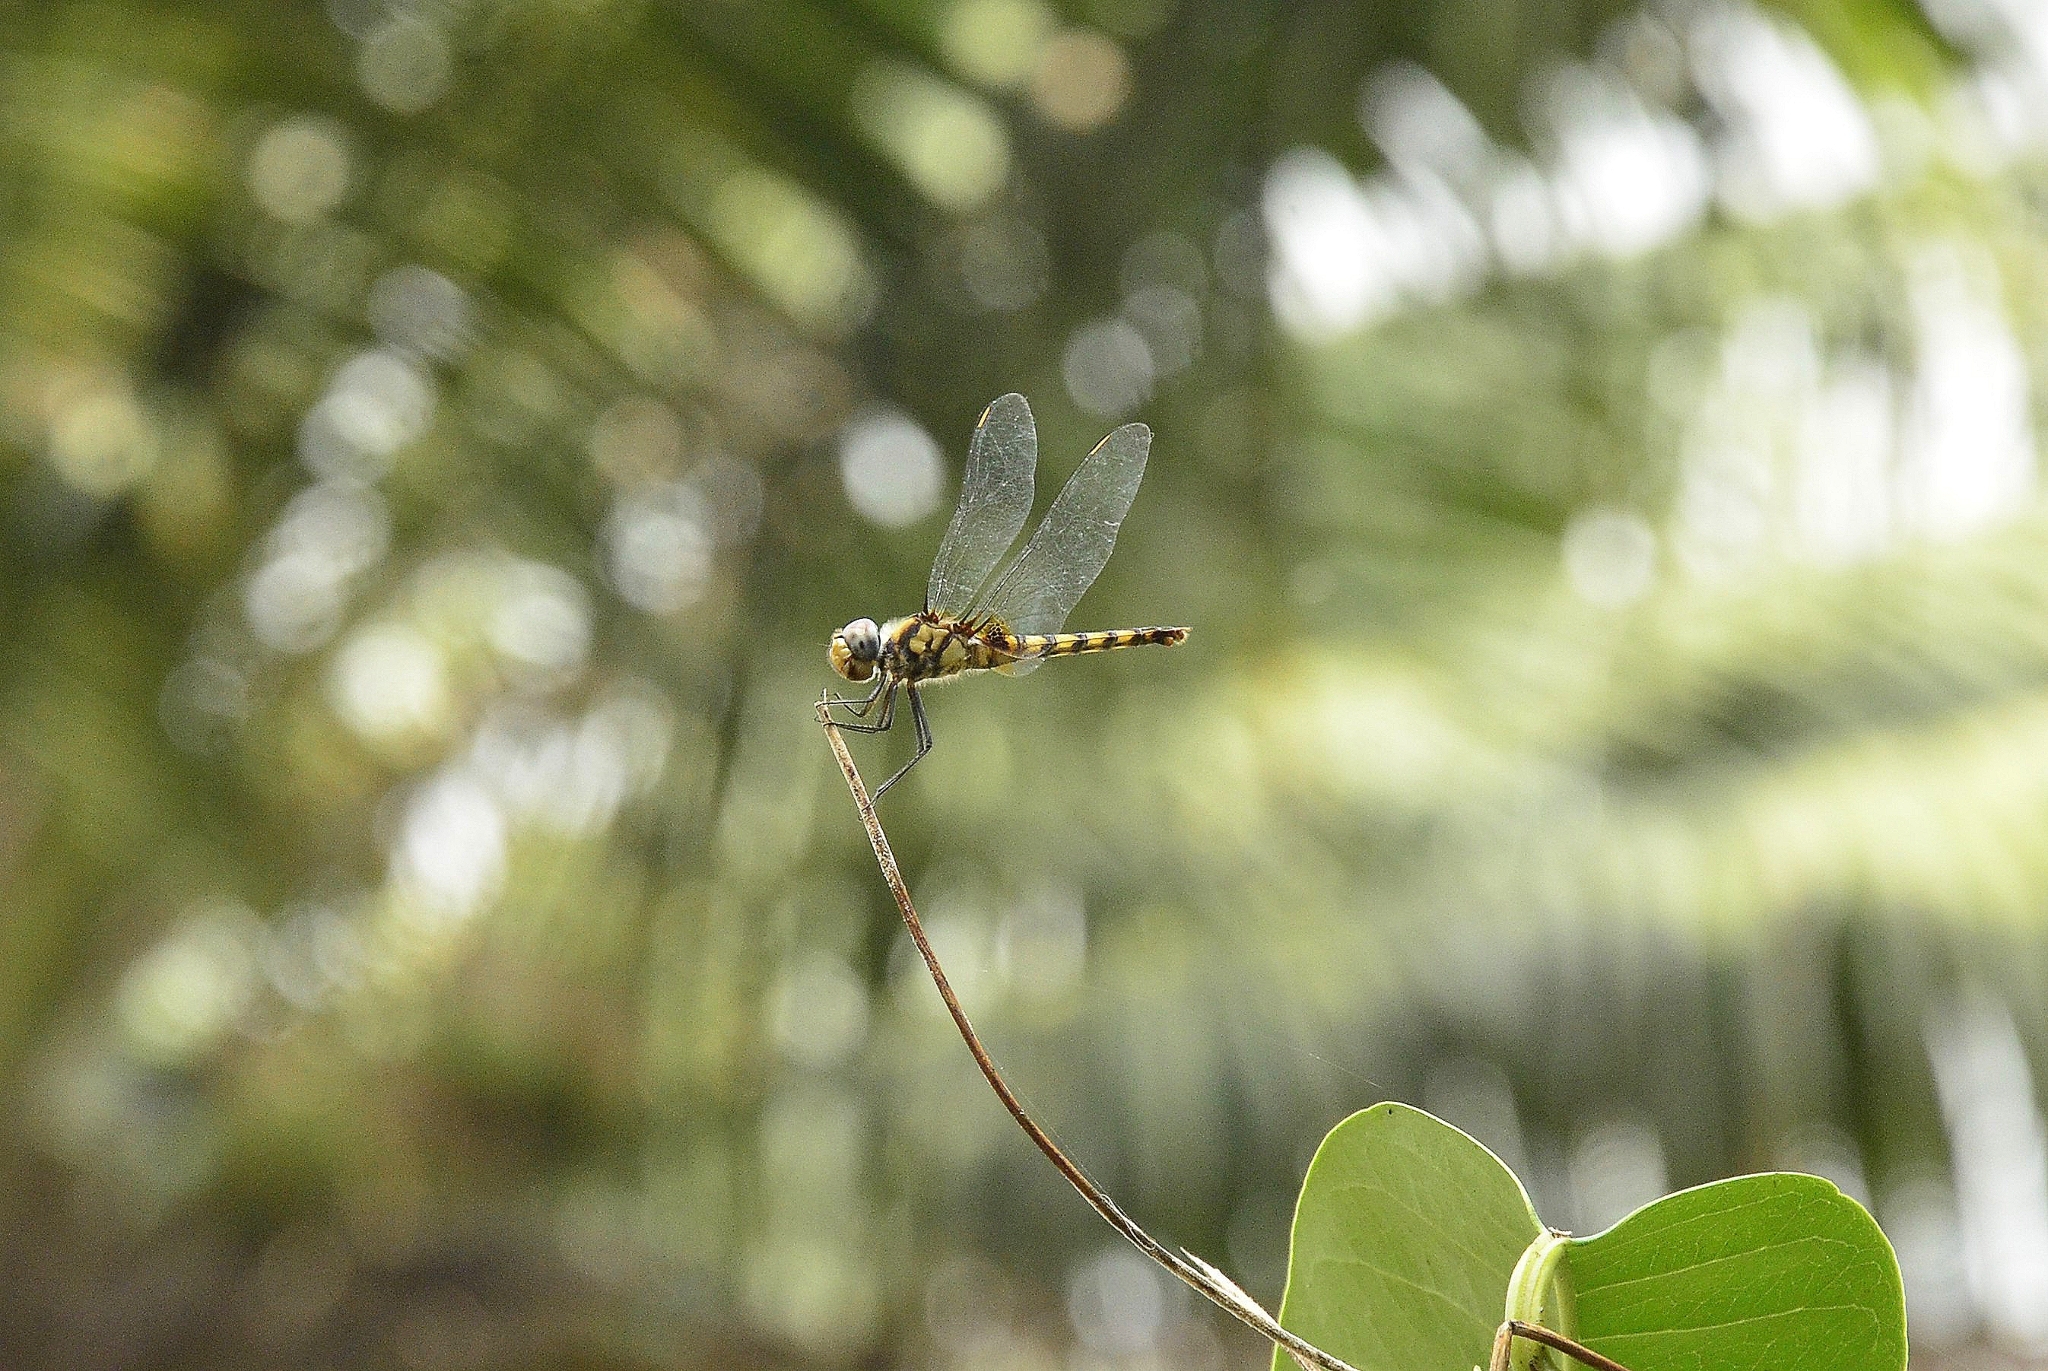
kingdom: Animalia
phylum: Arthropoda
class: Insecta
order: Odonata
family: Libellulidae
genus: Urothemis
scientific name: Urothemis signata
